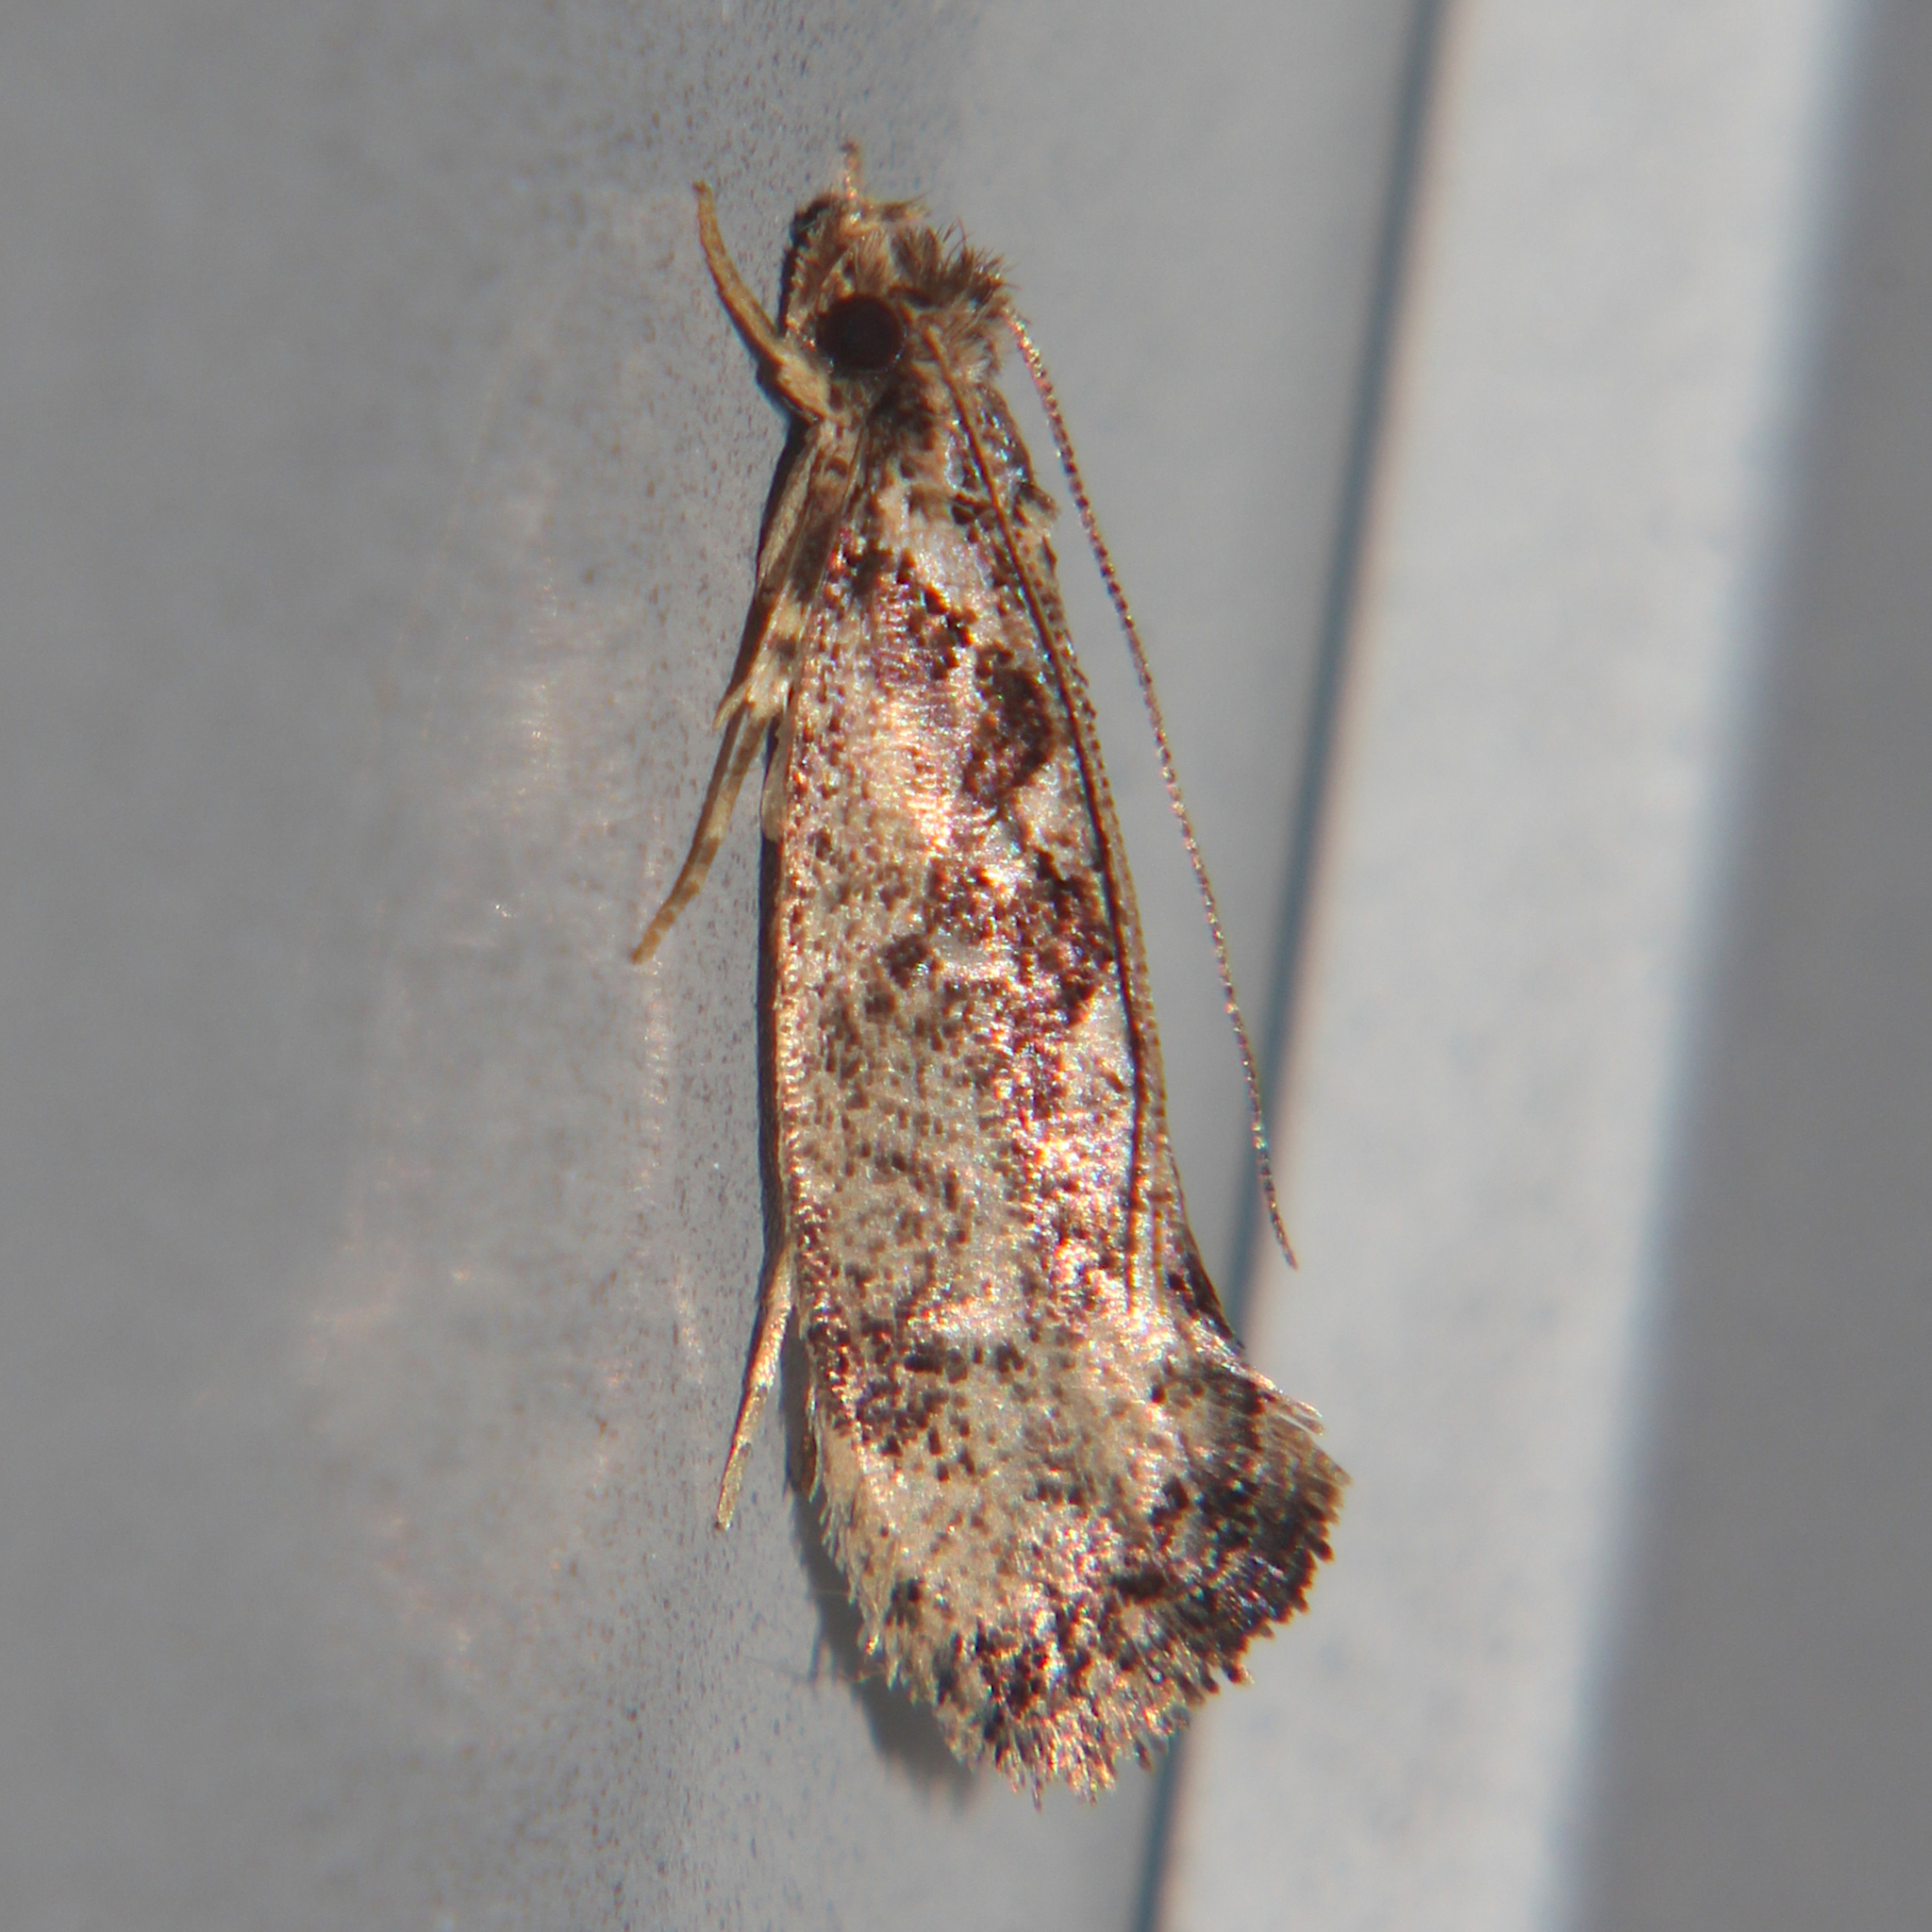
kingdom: Animalia
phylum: Arthropoda
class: Insecta
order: Lepidoptera
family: Tineidae
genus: Erechthias
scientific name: Erechthias capnitis
